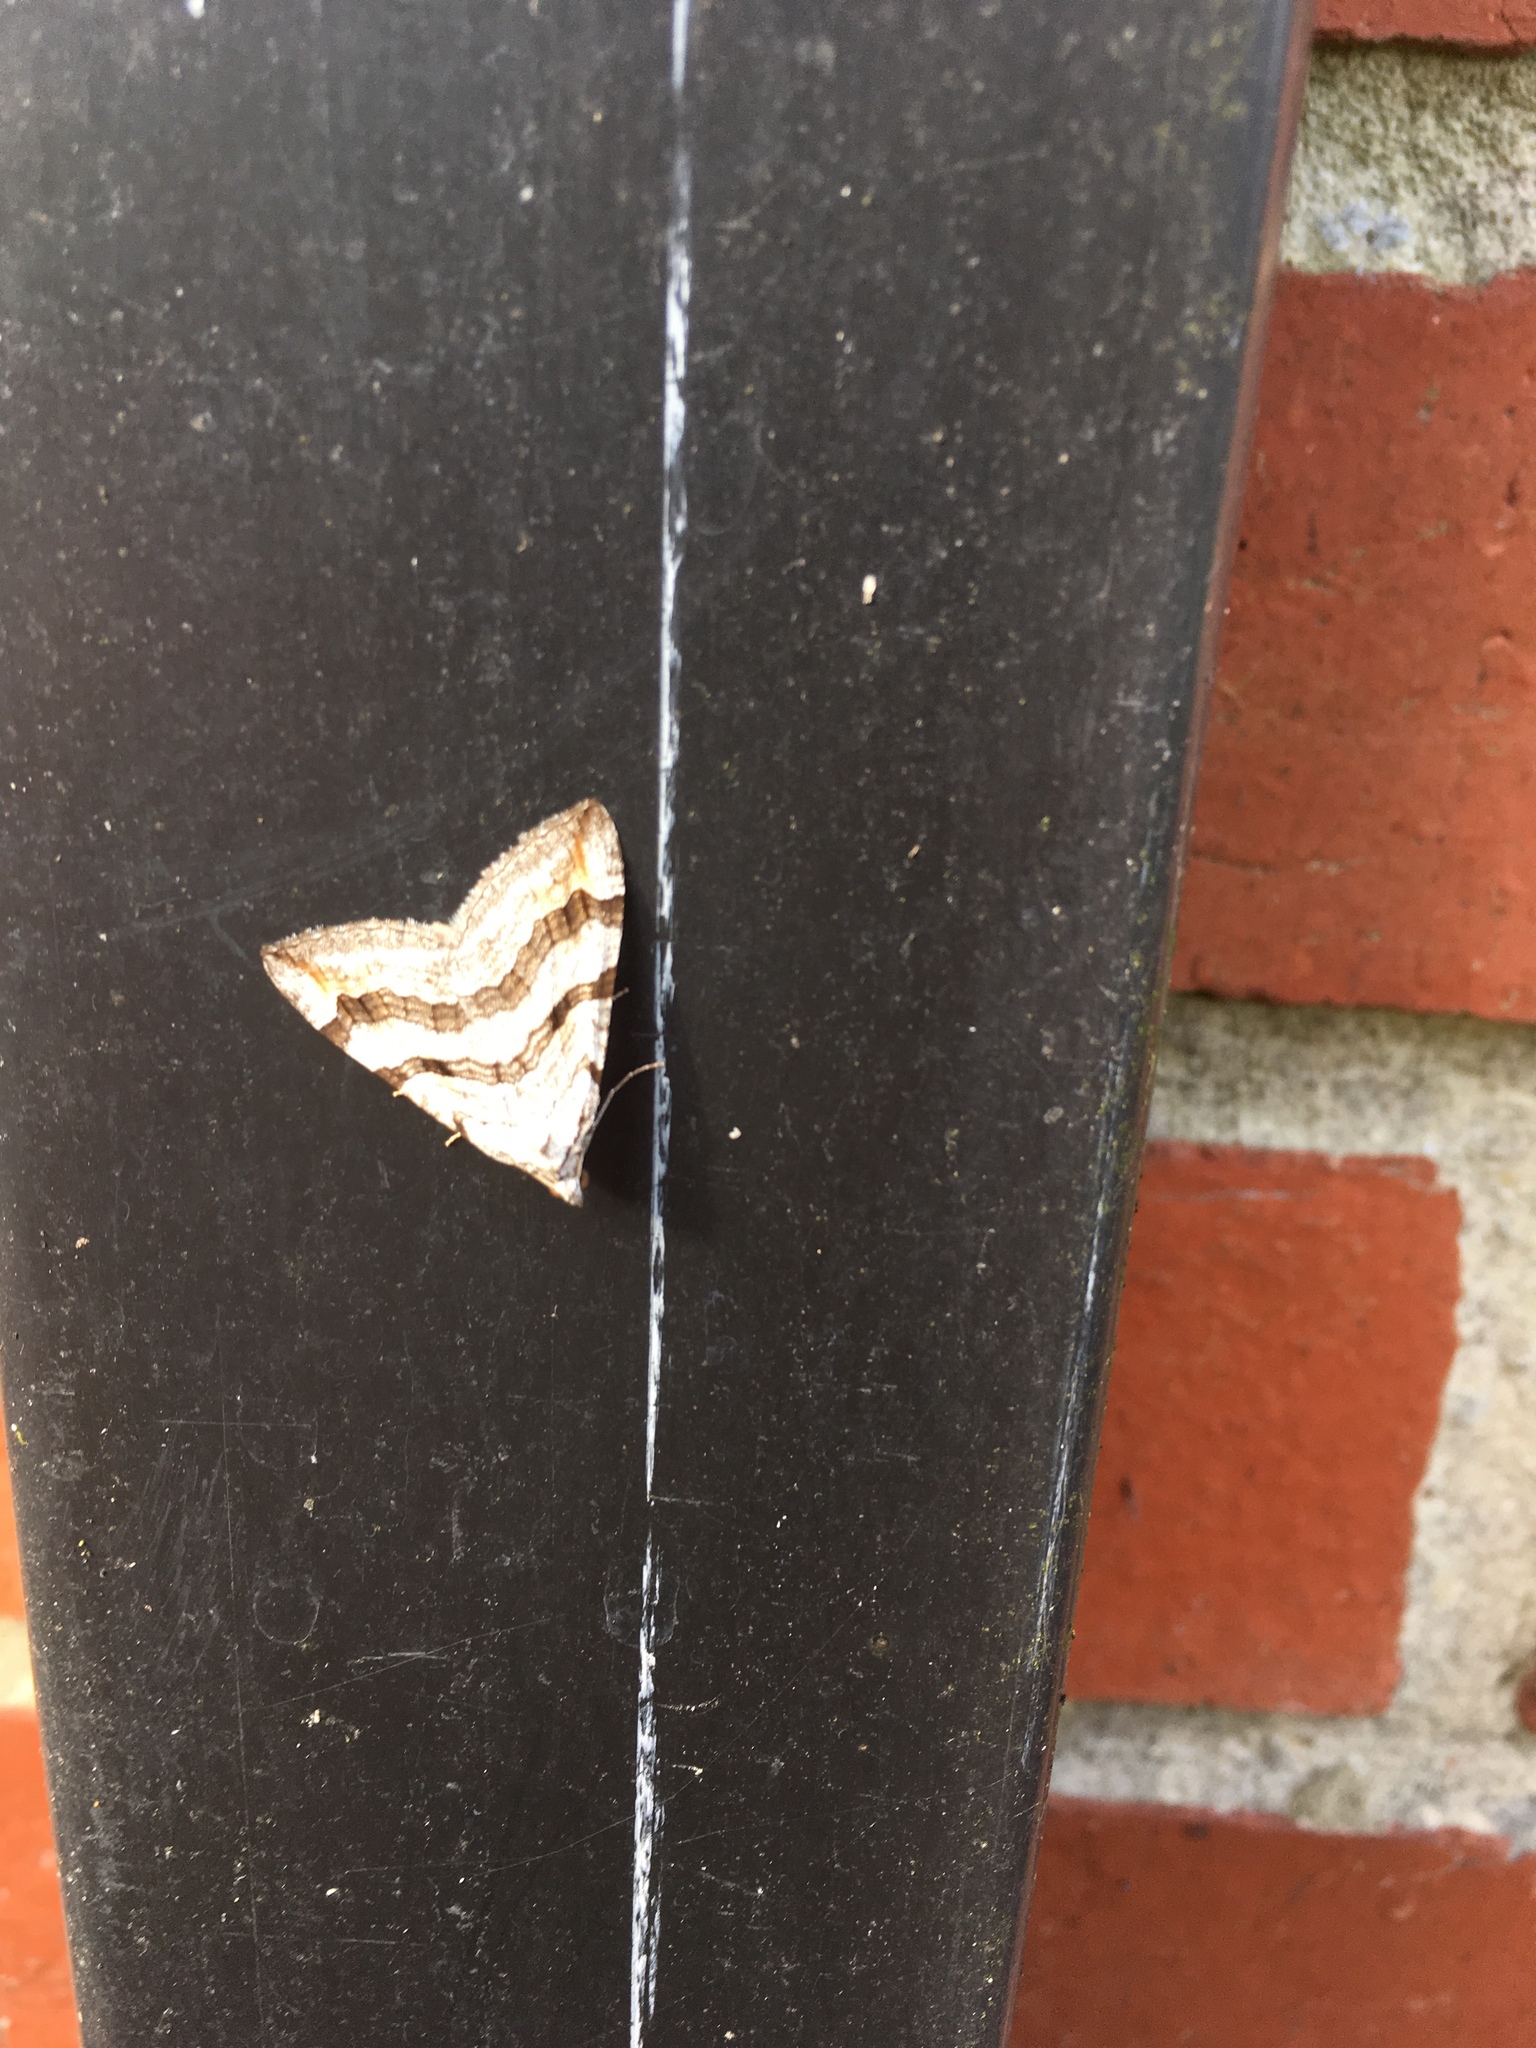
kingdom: Animalia
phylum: Arthropoda
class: Insecta
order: Lepidoptera
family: Geometridae
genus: Aplocera
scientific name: Aplocera efformata
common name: Lesser treble-bar
